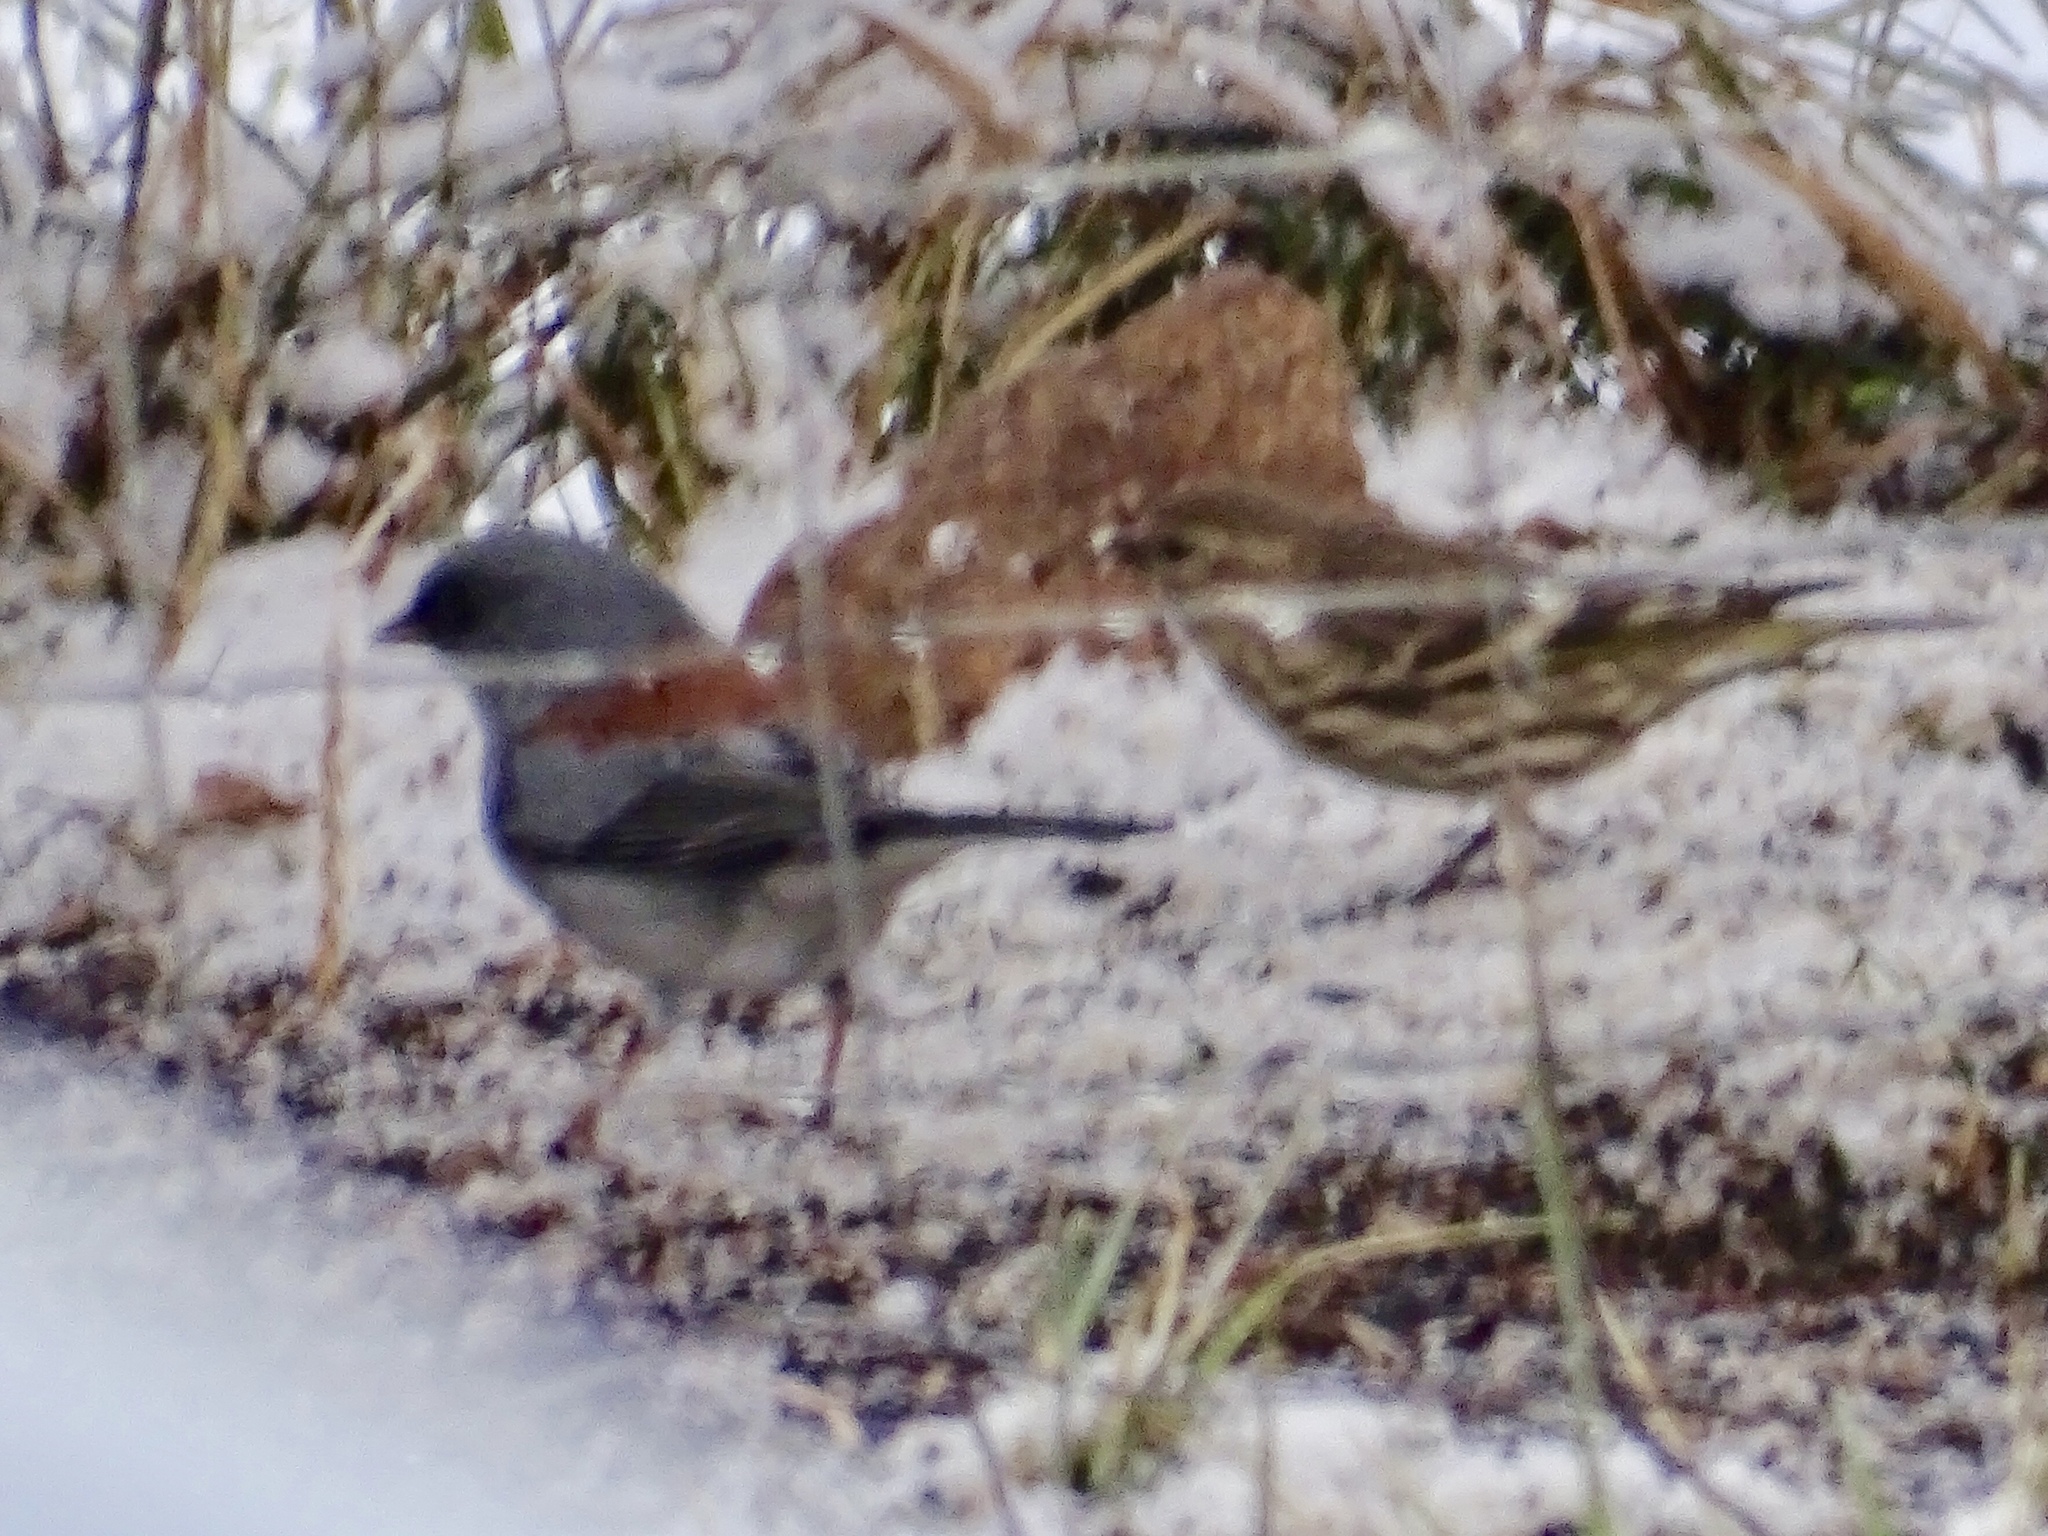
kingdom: Animalia
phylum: Chordata
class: Aves
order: Passeriformes
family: Passerellidae
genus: Junco
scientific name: Junco hyemalis
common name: Dark-eyed junco
